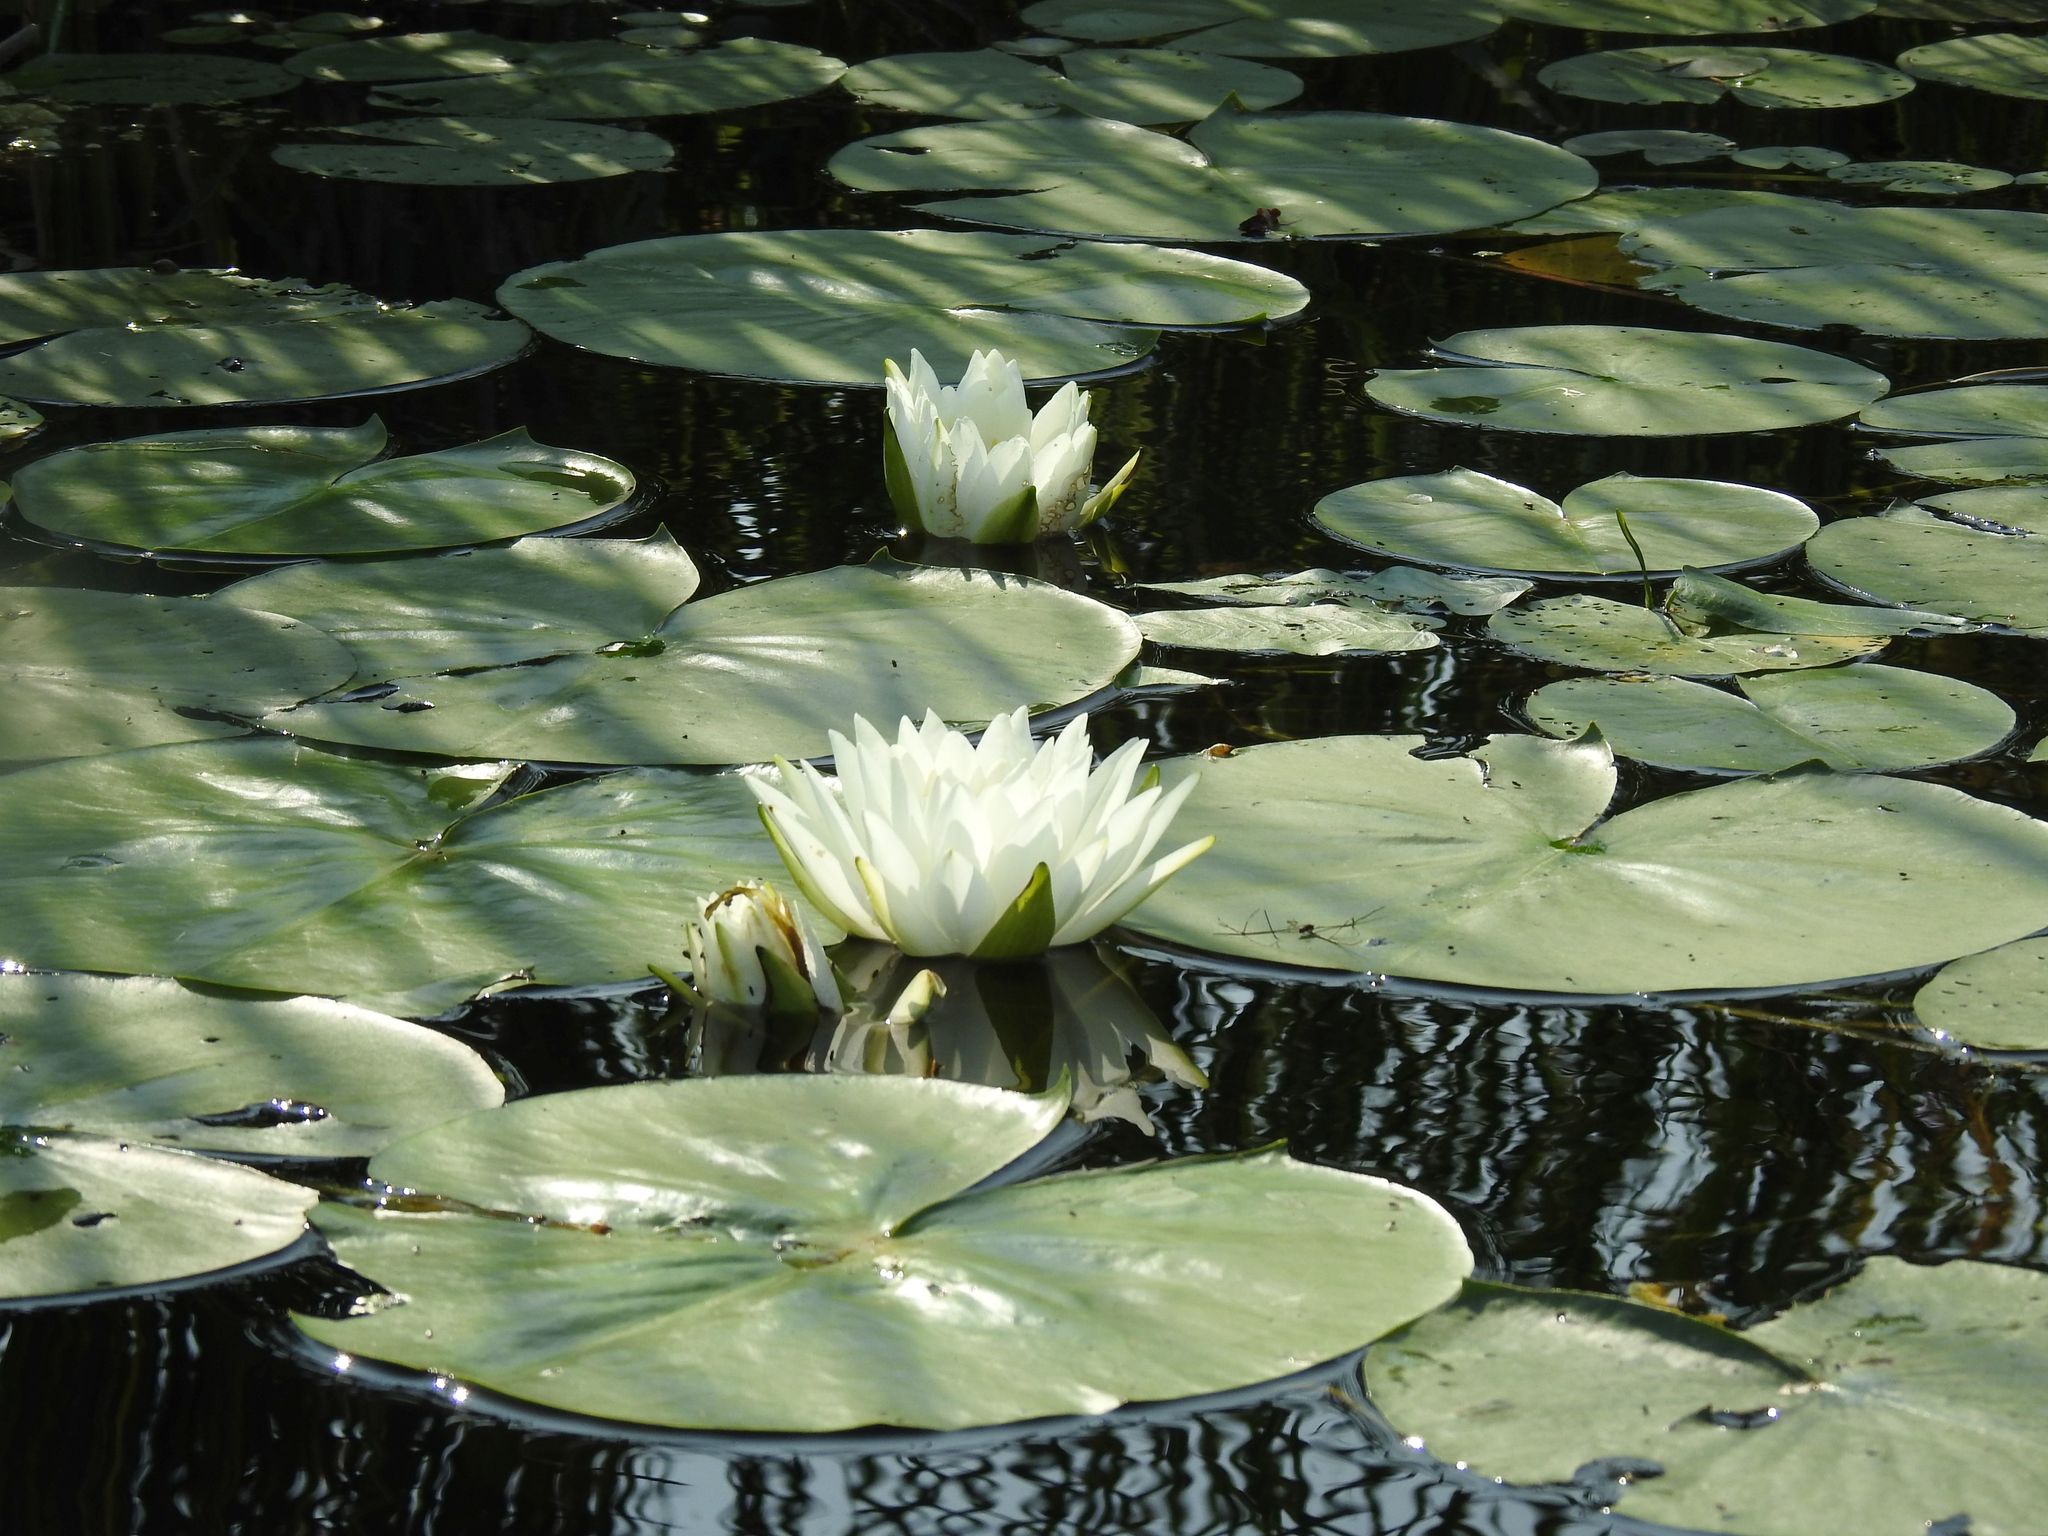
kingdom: Plantae
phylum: Tracheophyta
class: Magnoliopsida
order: Nymphaeales
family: Nymphaeaceae
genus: Nymphaea
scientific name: Nymphaea odorata
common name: Fragrant water-lily
